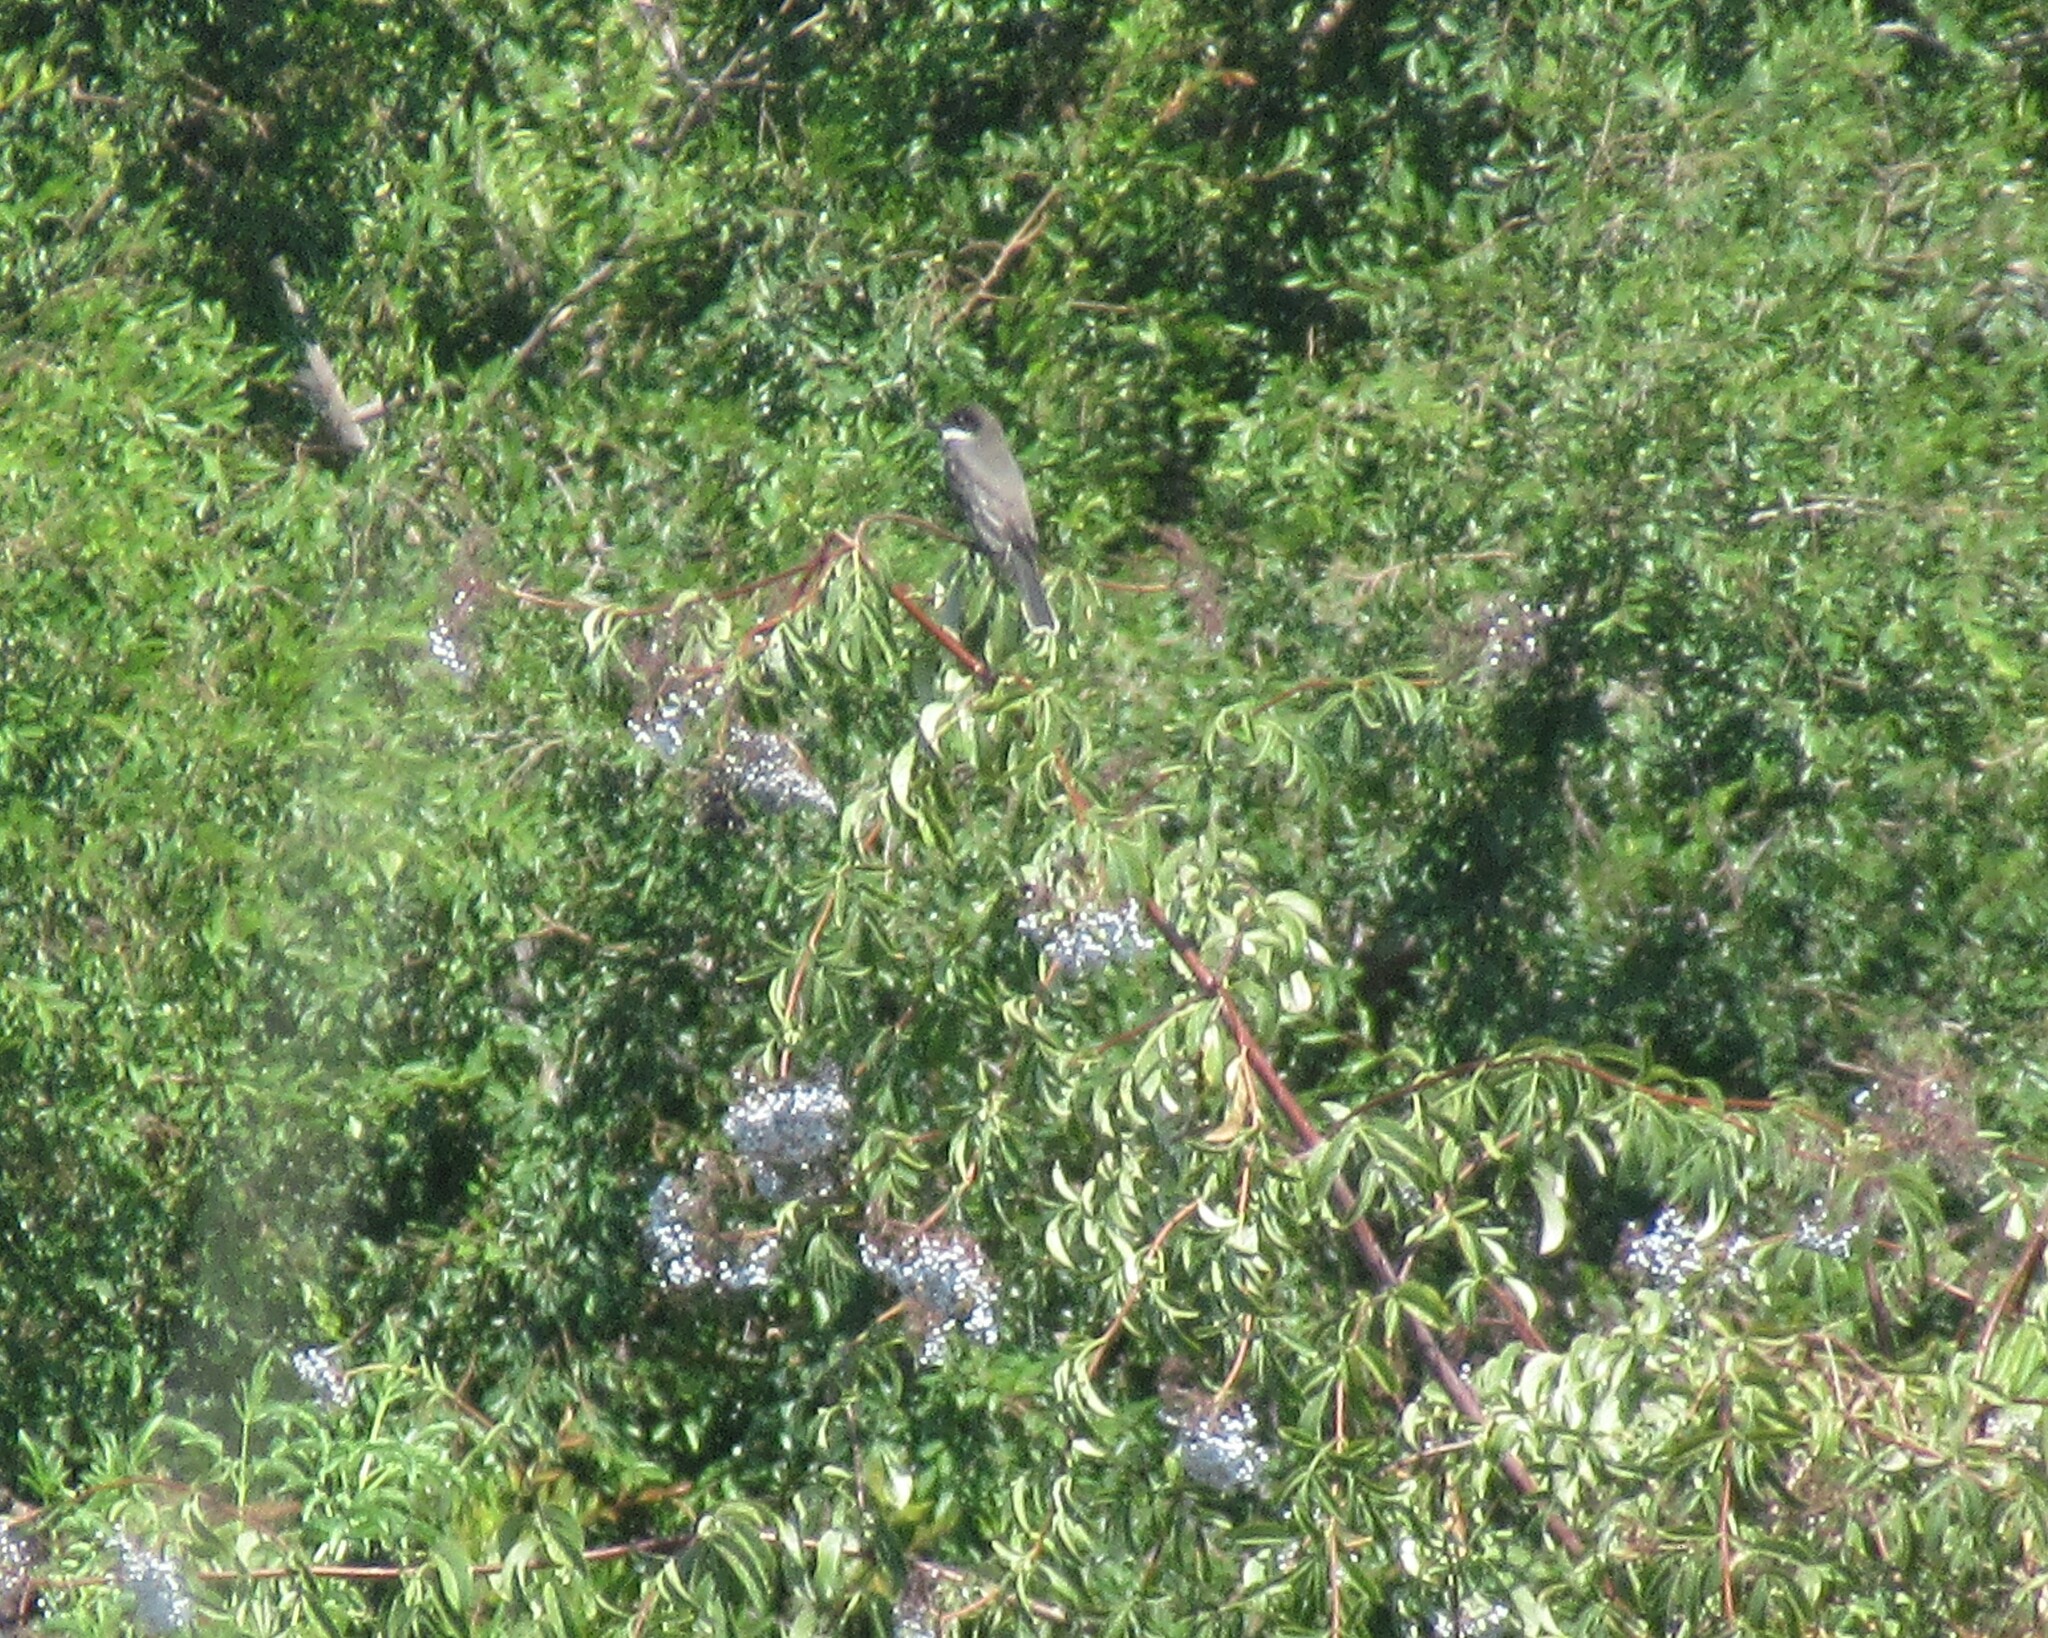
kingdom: Animalia
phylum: Chordata
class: Aves
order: Passeriformes
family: Tyrannidae
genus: Tyrannus
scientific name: Tyrannus tyrannus
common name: Eastern kingbird
